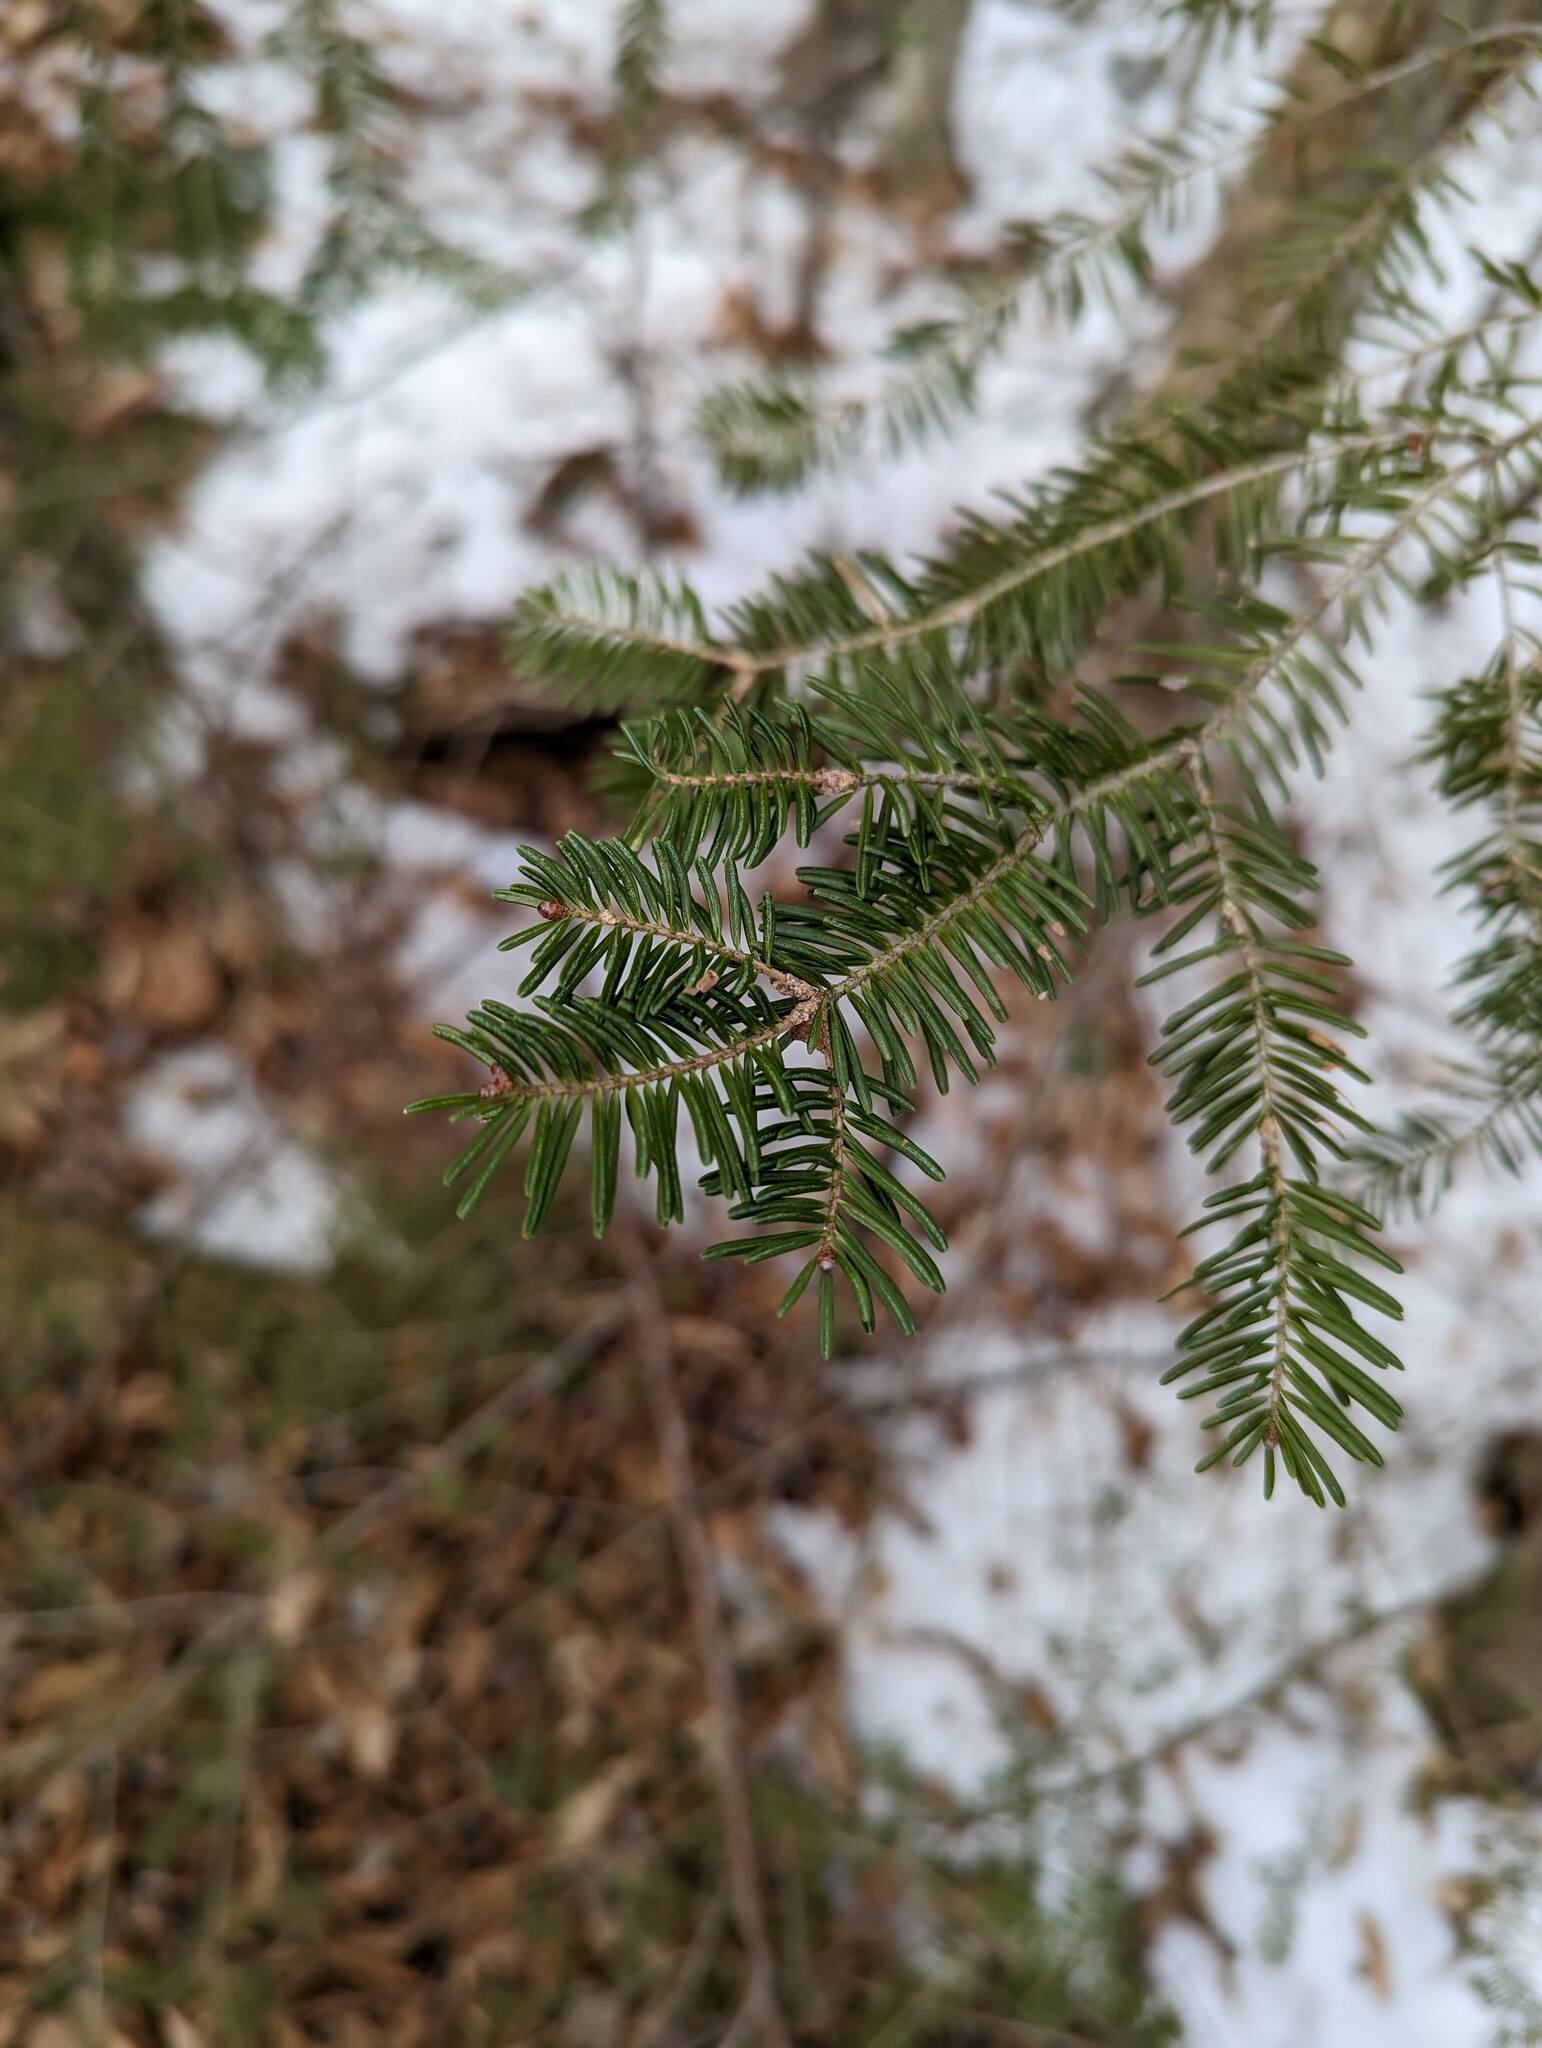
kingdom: Plantae
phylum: Tracheophyta
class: Pinopsida
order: Pinales
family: Pinaceae
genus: Abies
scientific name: Abies balsamea
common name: Balsam fir
